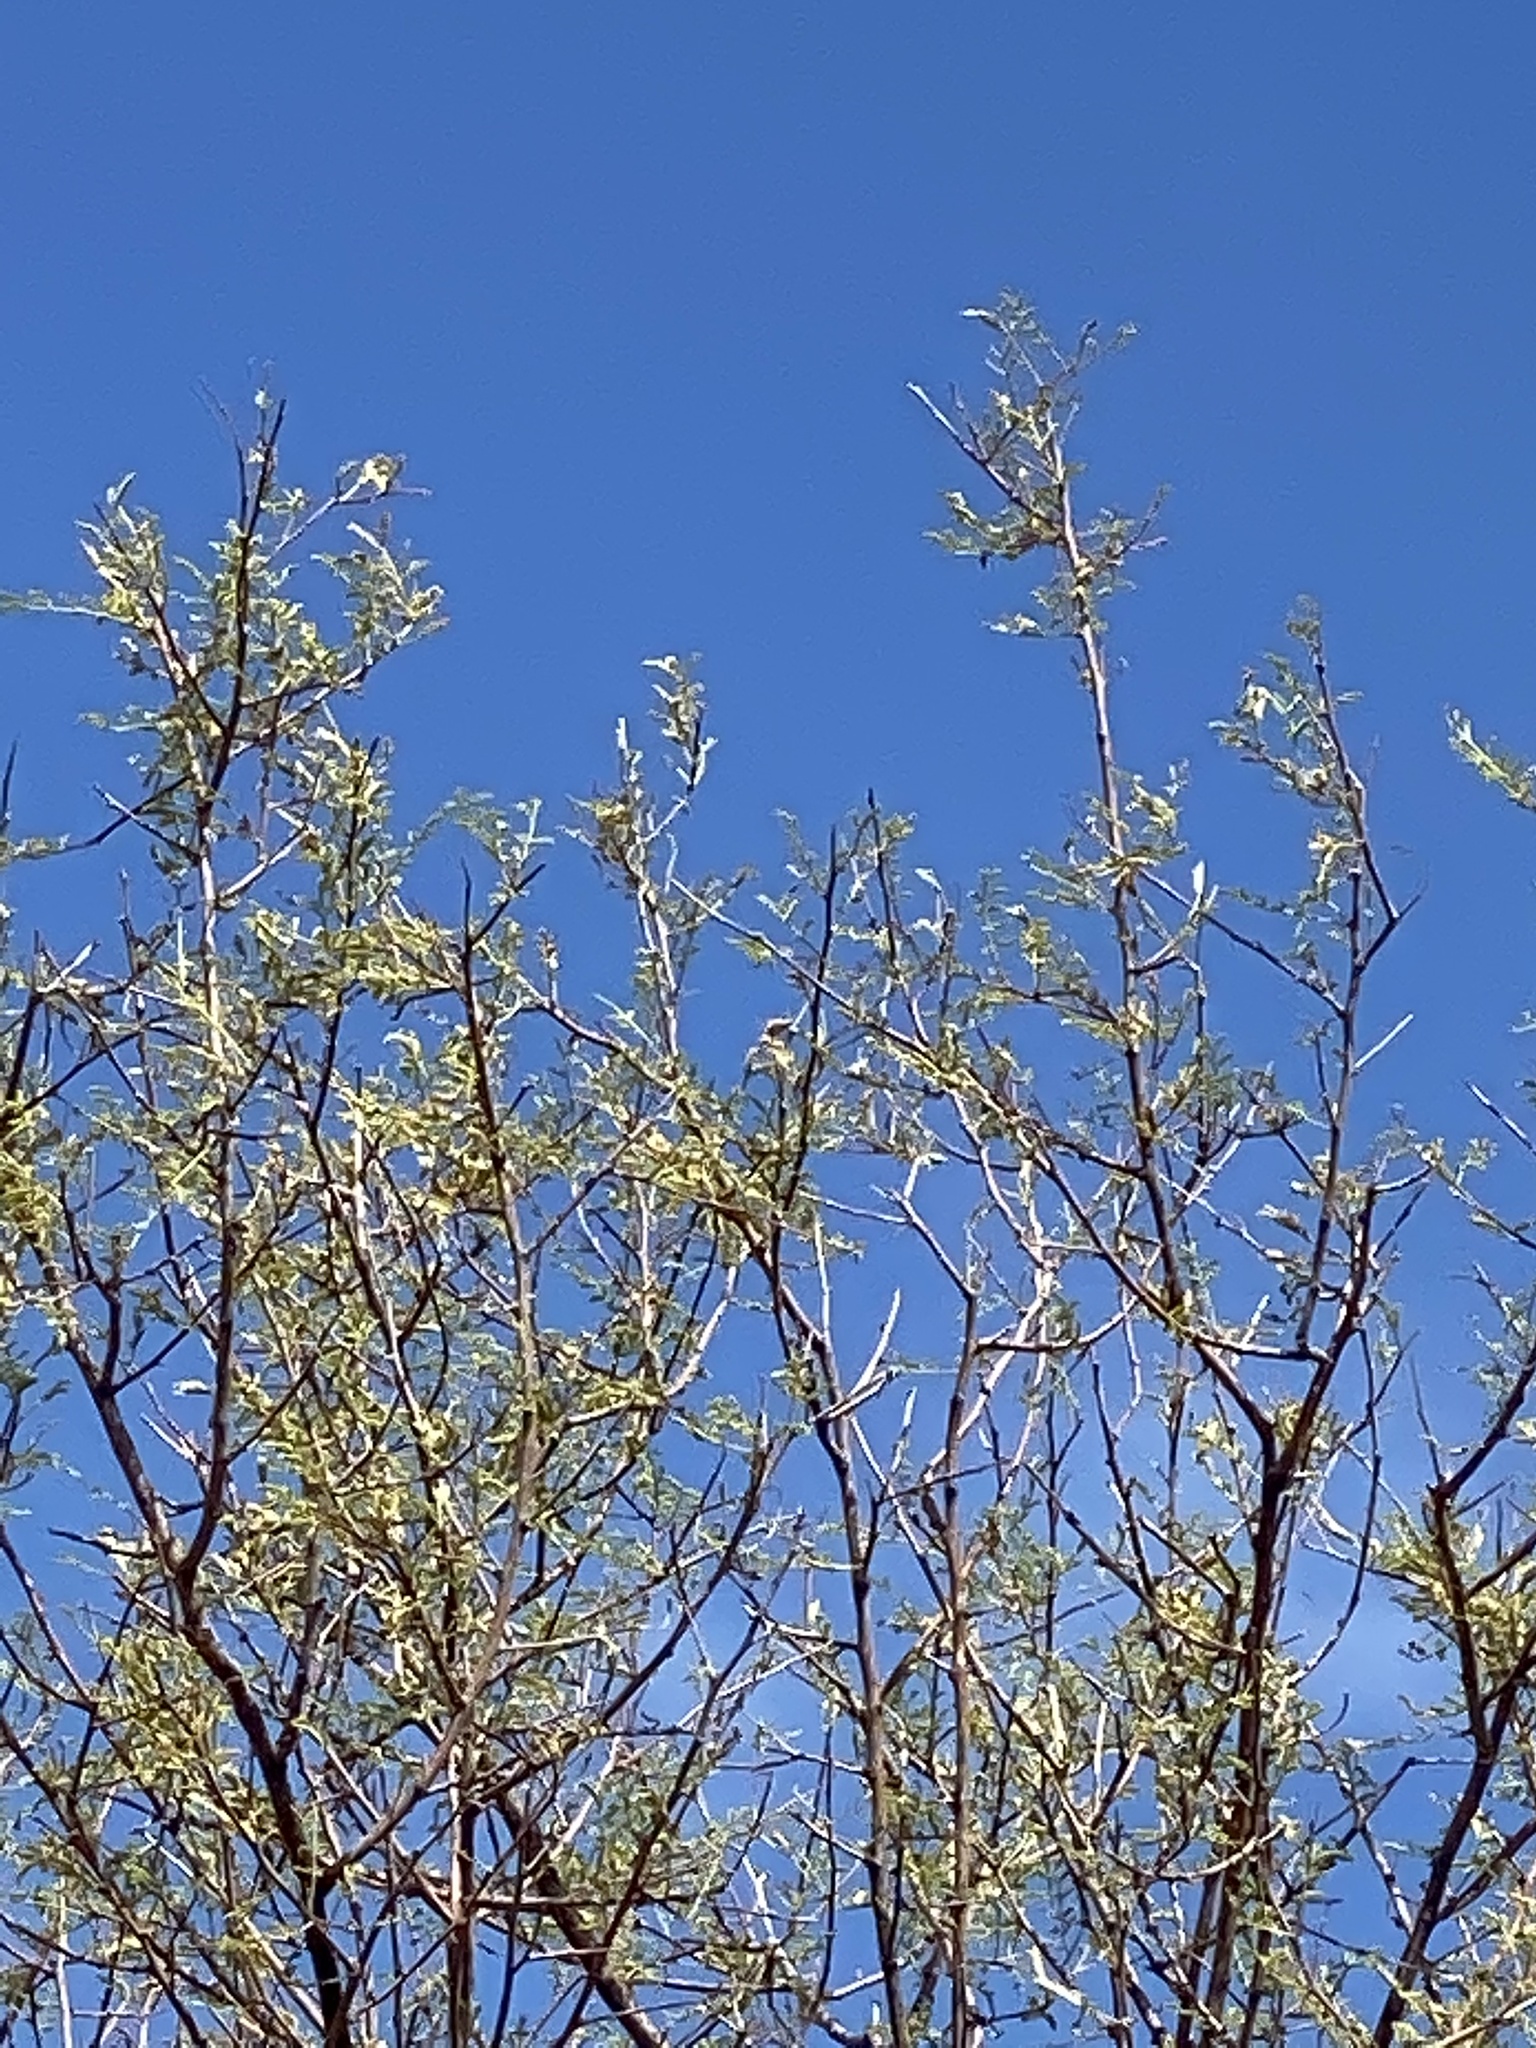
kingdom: Plantae
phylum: Tracheophyta
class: Magnoliopsida
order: Fabales
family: Fabaceae
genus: Vachellia
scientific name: Vachellia constricta
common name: Mescat acacia
